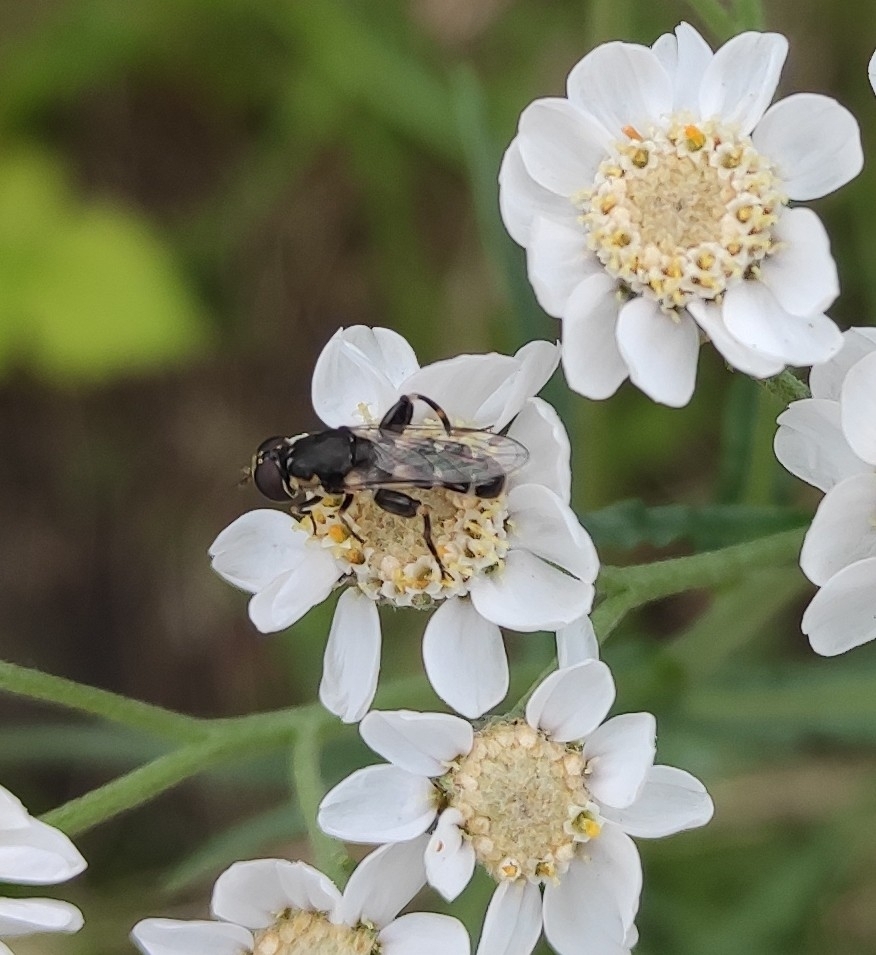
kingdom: Animalia
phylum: Arthropoda
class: Insecta
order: Diptera
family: Syrphidae
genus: Syritta
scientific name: Syritta pipiens
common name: Hover fly
